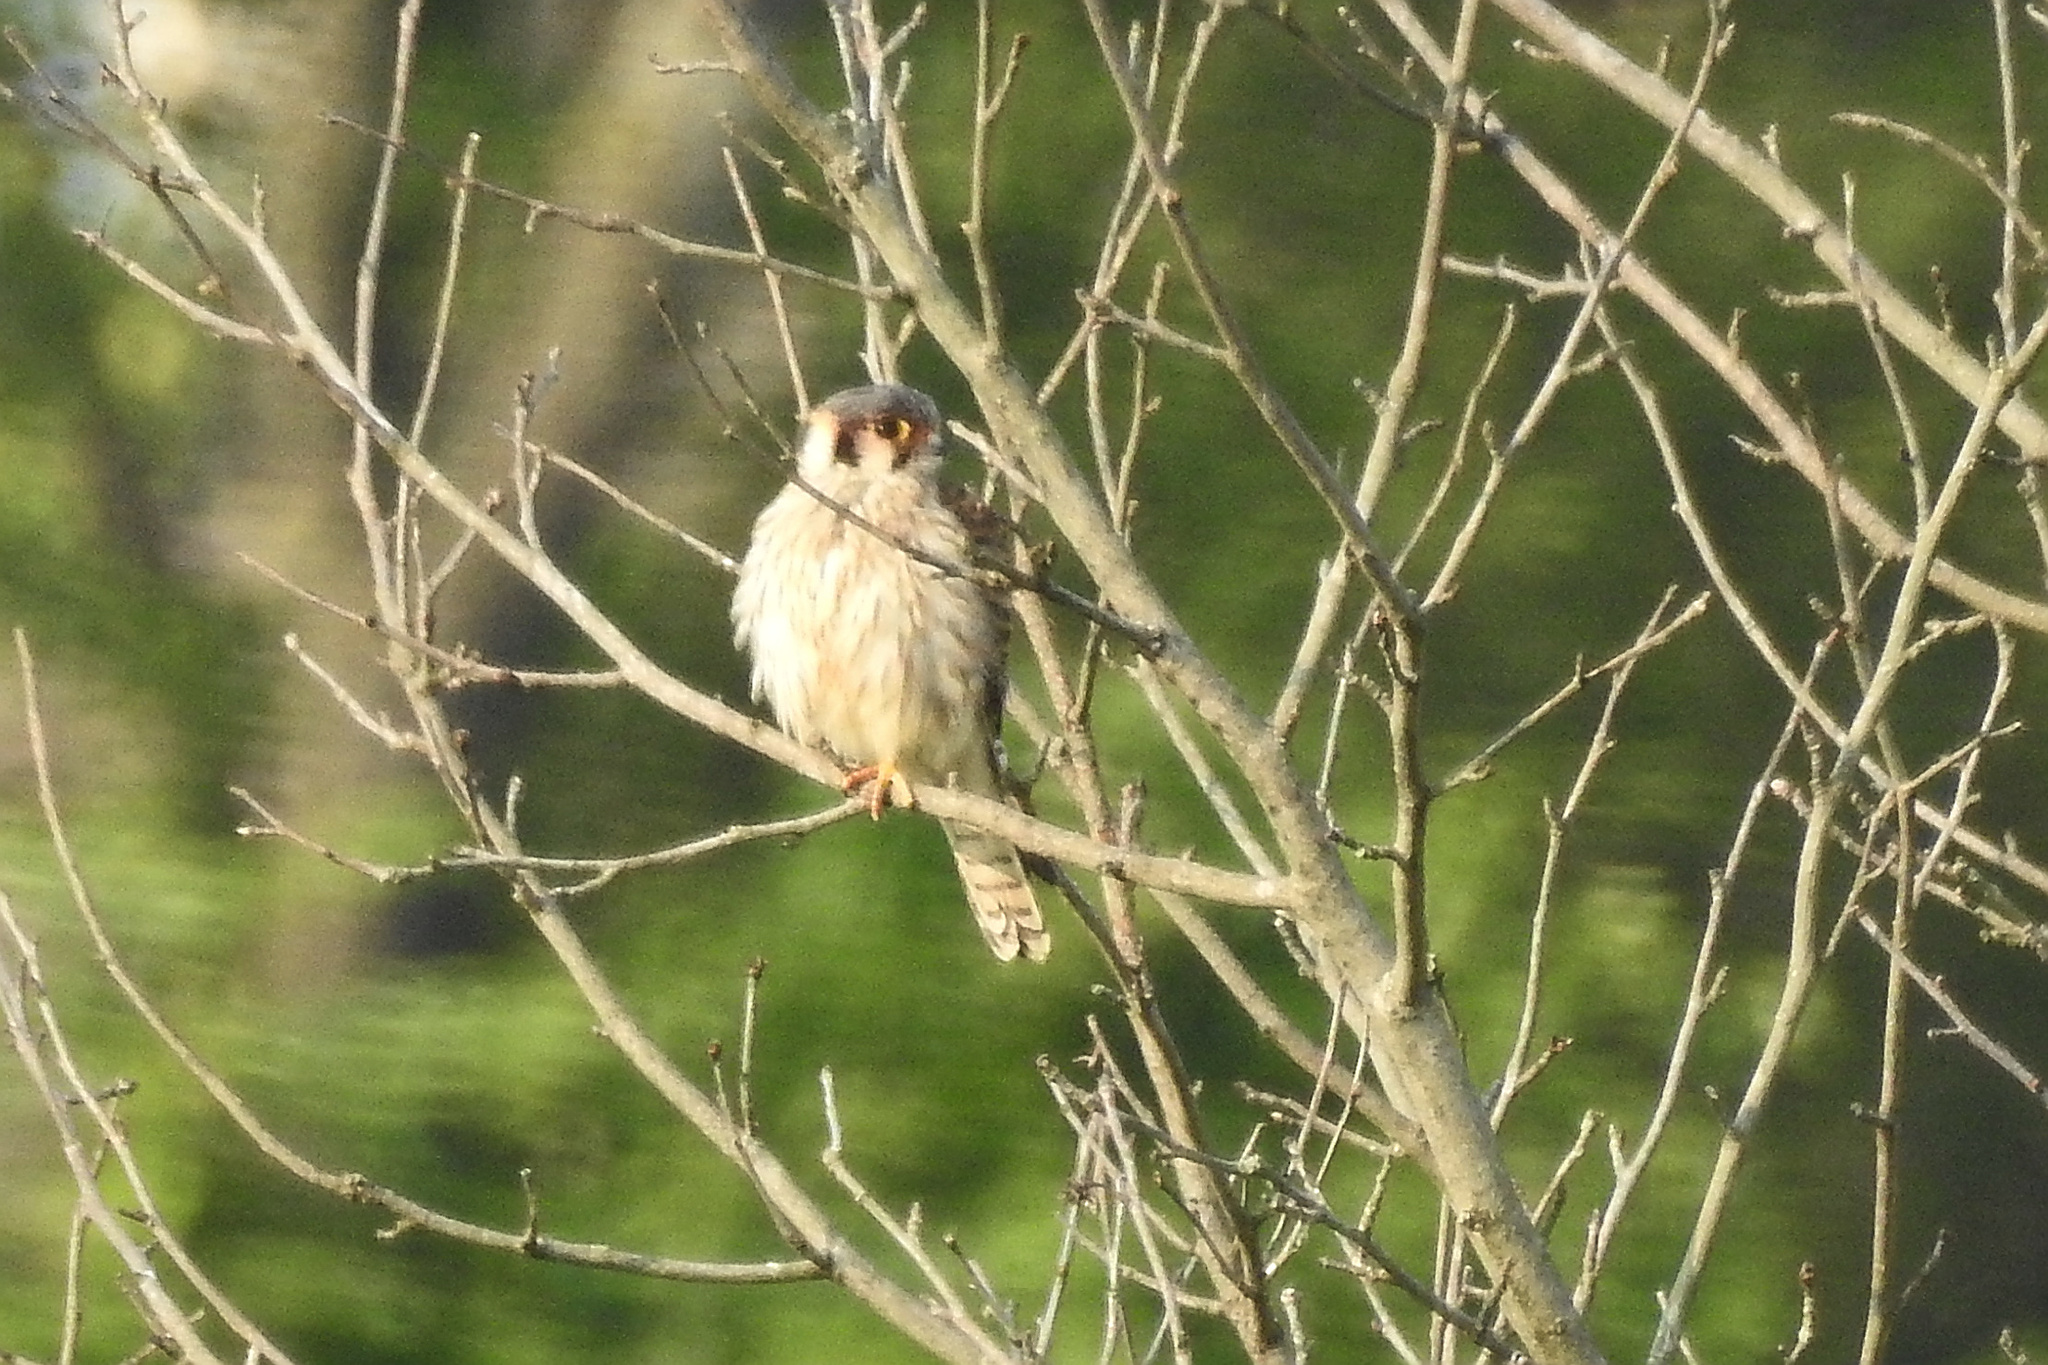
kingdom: Animalia
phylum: Chordata
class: Aves
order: Falconiformes
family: Falconidae
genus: Falco
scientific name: Falco sparverius
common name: American kestrel
